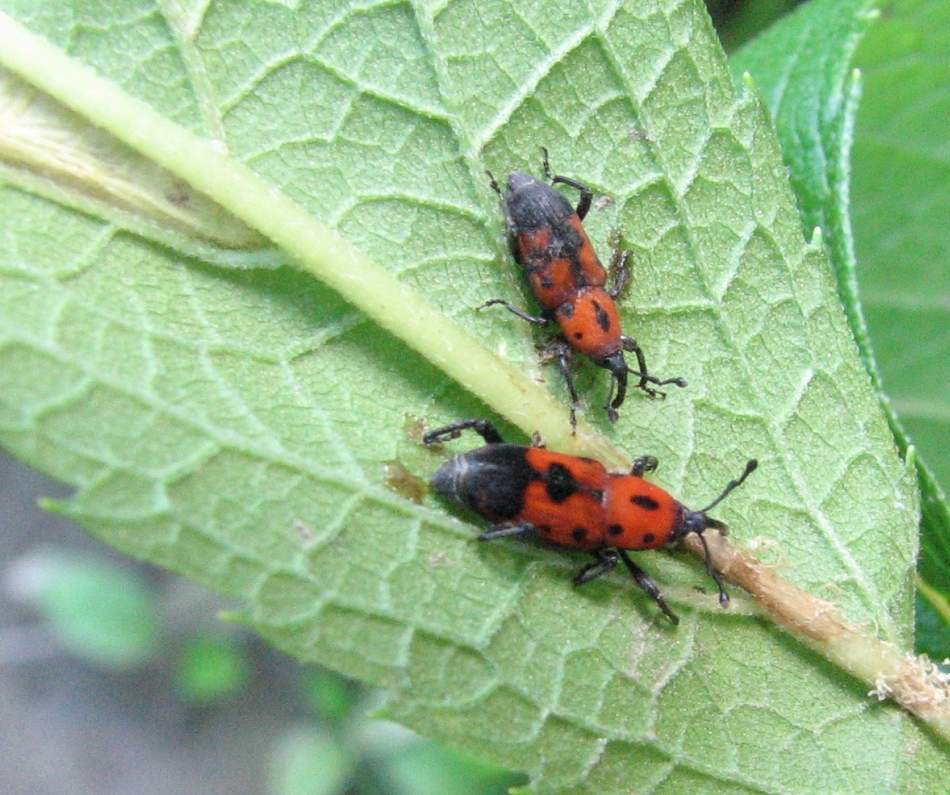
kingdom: Animalia
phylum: Arthropoda
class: Insecta
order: Coleoptera
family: Dryophthoridae
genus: Rhodobaenus
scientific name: Rhodobaenus quinquepunctatus
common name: Cocklebur weevil
